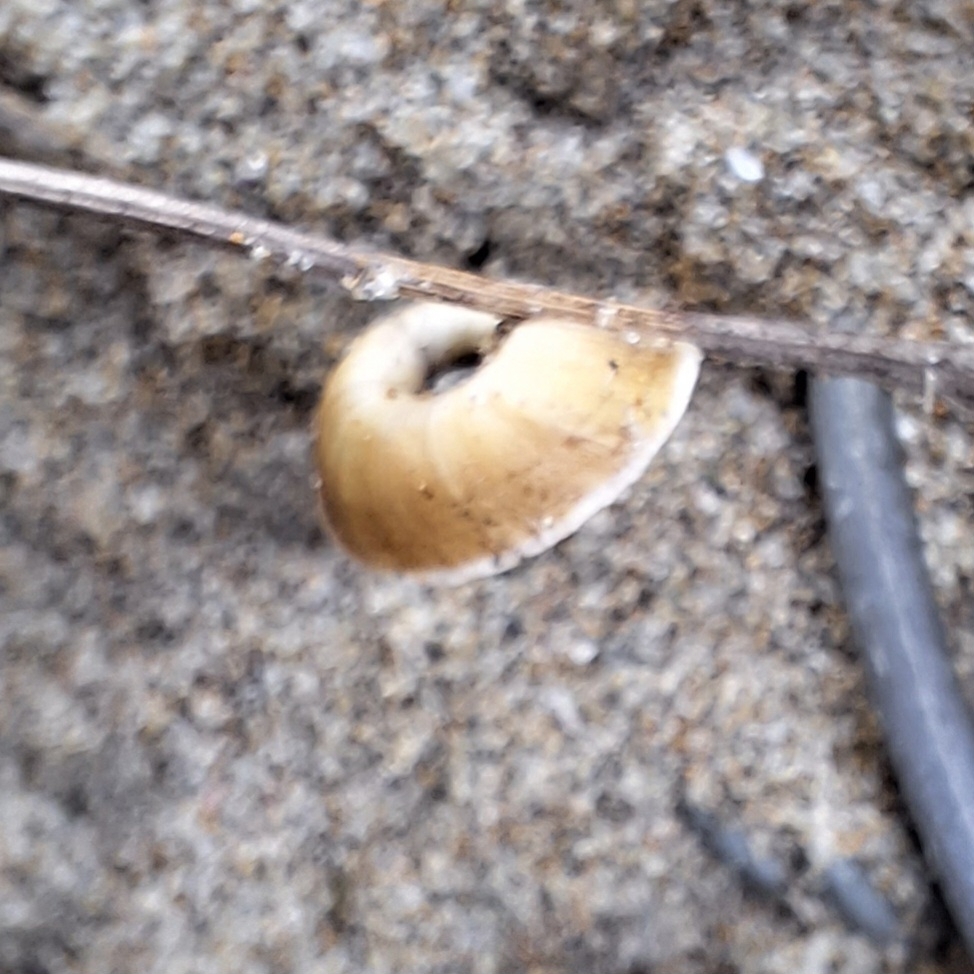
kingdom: Animalia
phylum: Mollusca
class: Gastropoda
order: Stylommatophora
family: Geomitridae
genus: Xerosecta
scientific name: Xerosecta explanata
